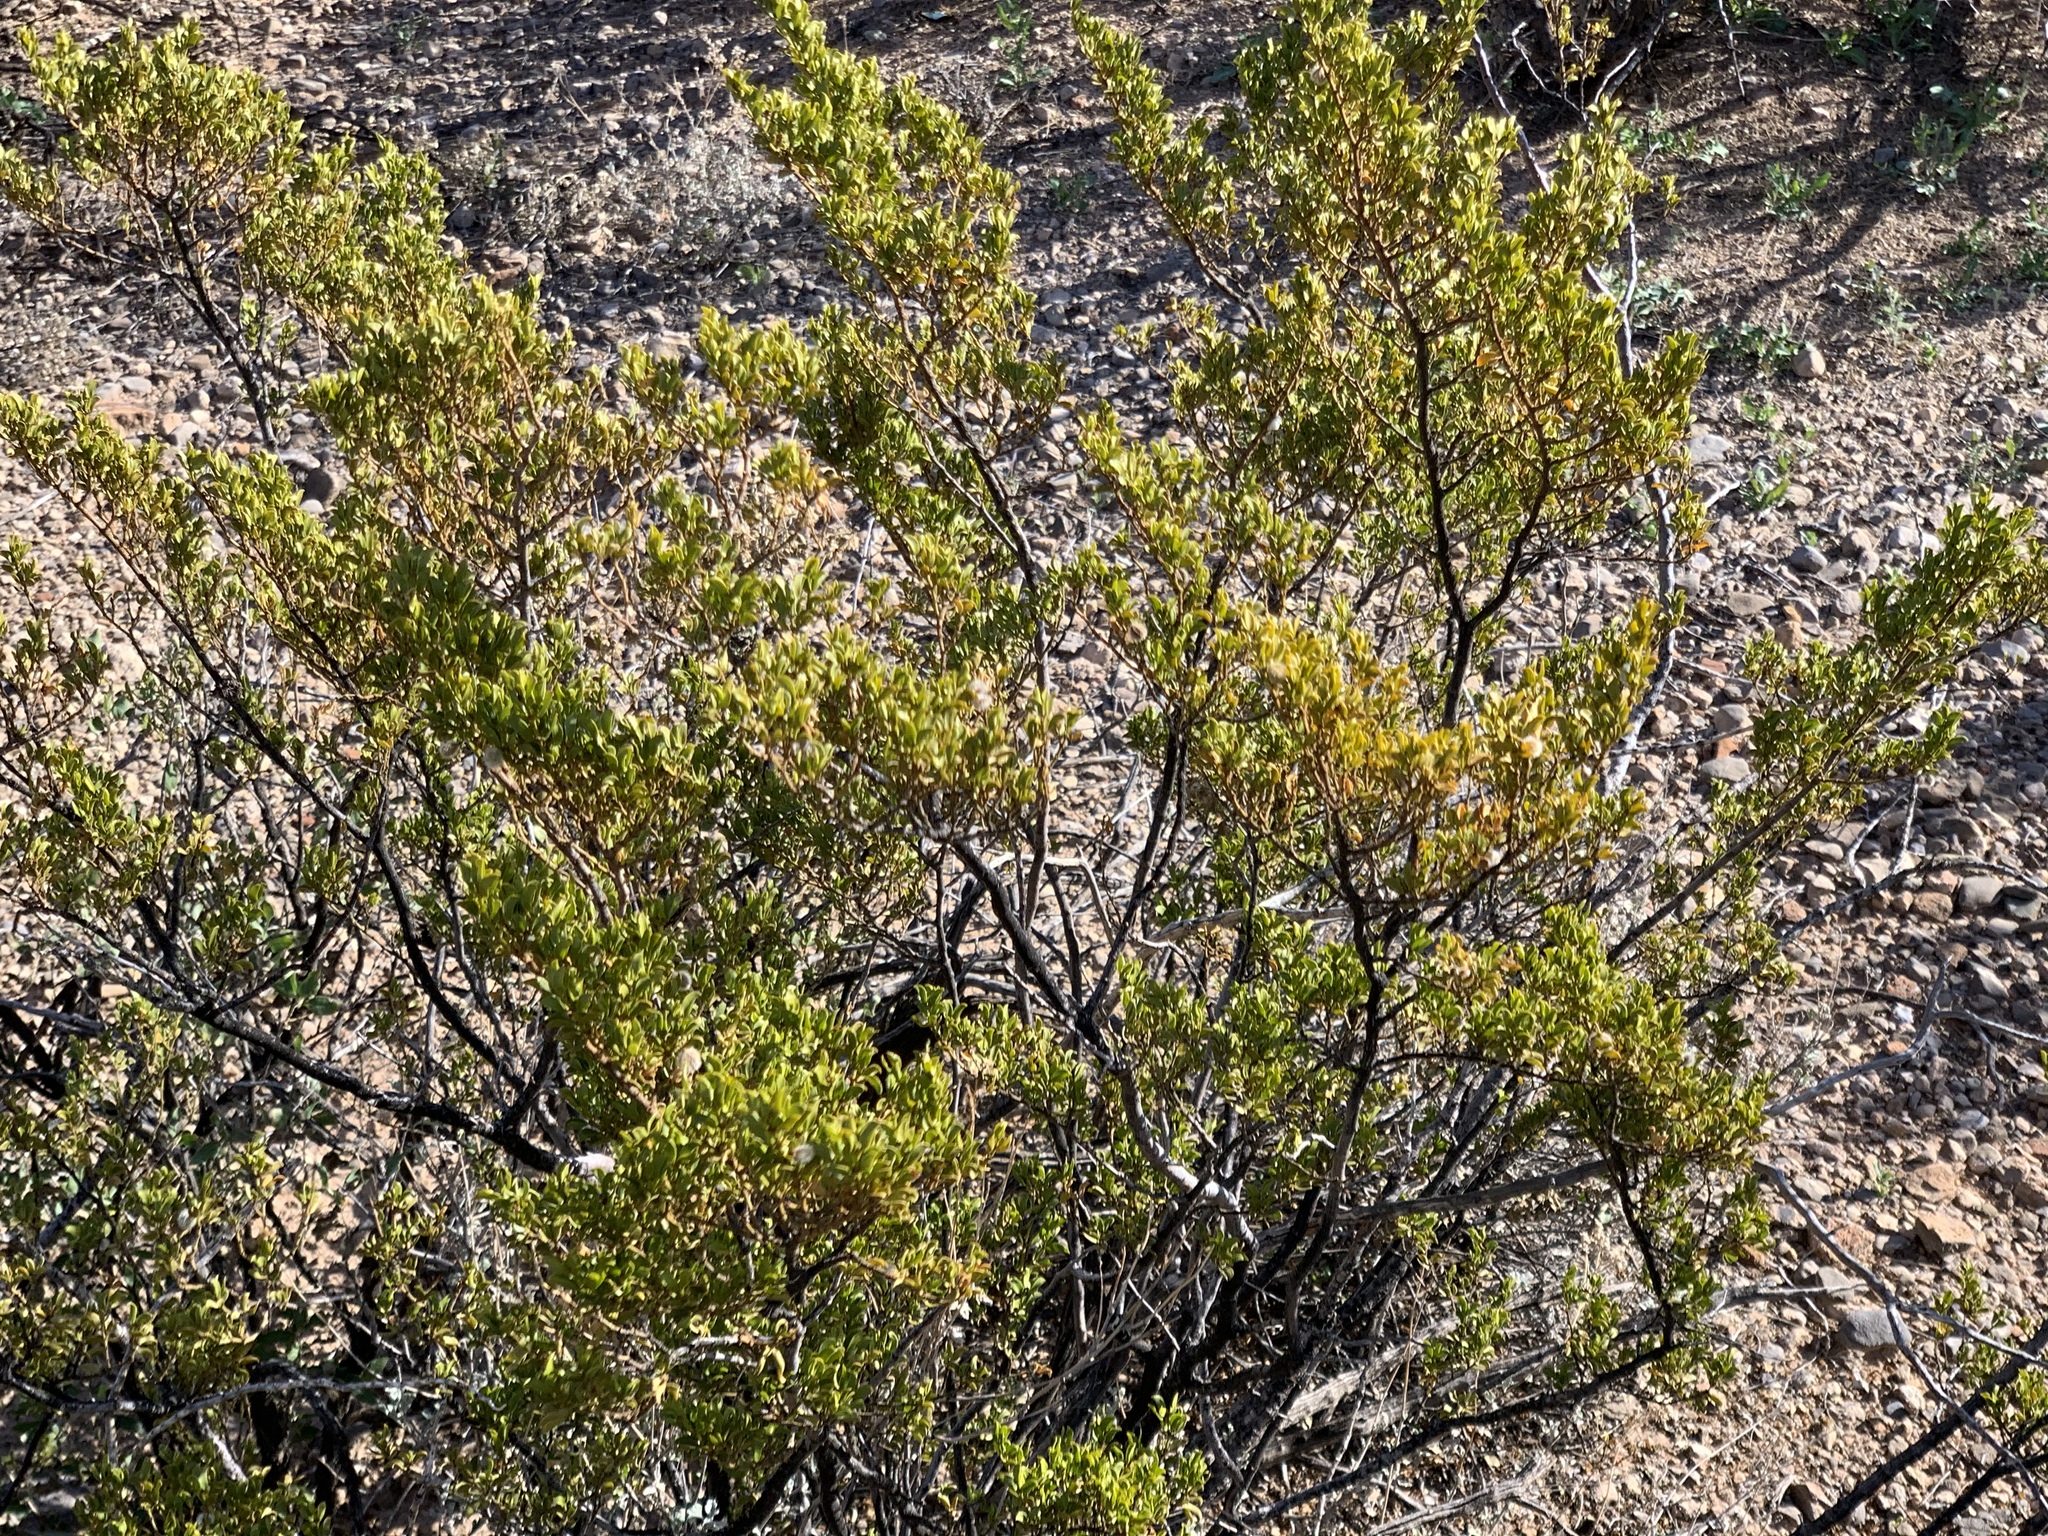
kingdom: Plantae
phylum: Tracheophyta
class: Magnoliopsida
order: Zygophyllales
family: Zygophyllaceae
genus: Larrea
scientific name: Larrea tridentata
